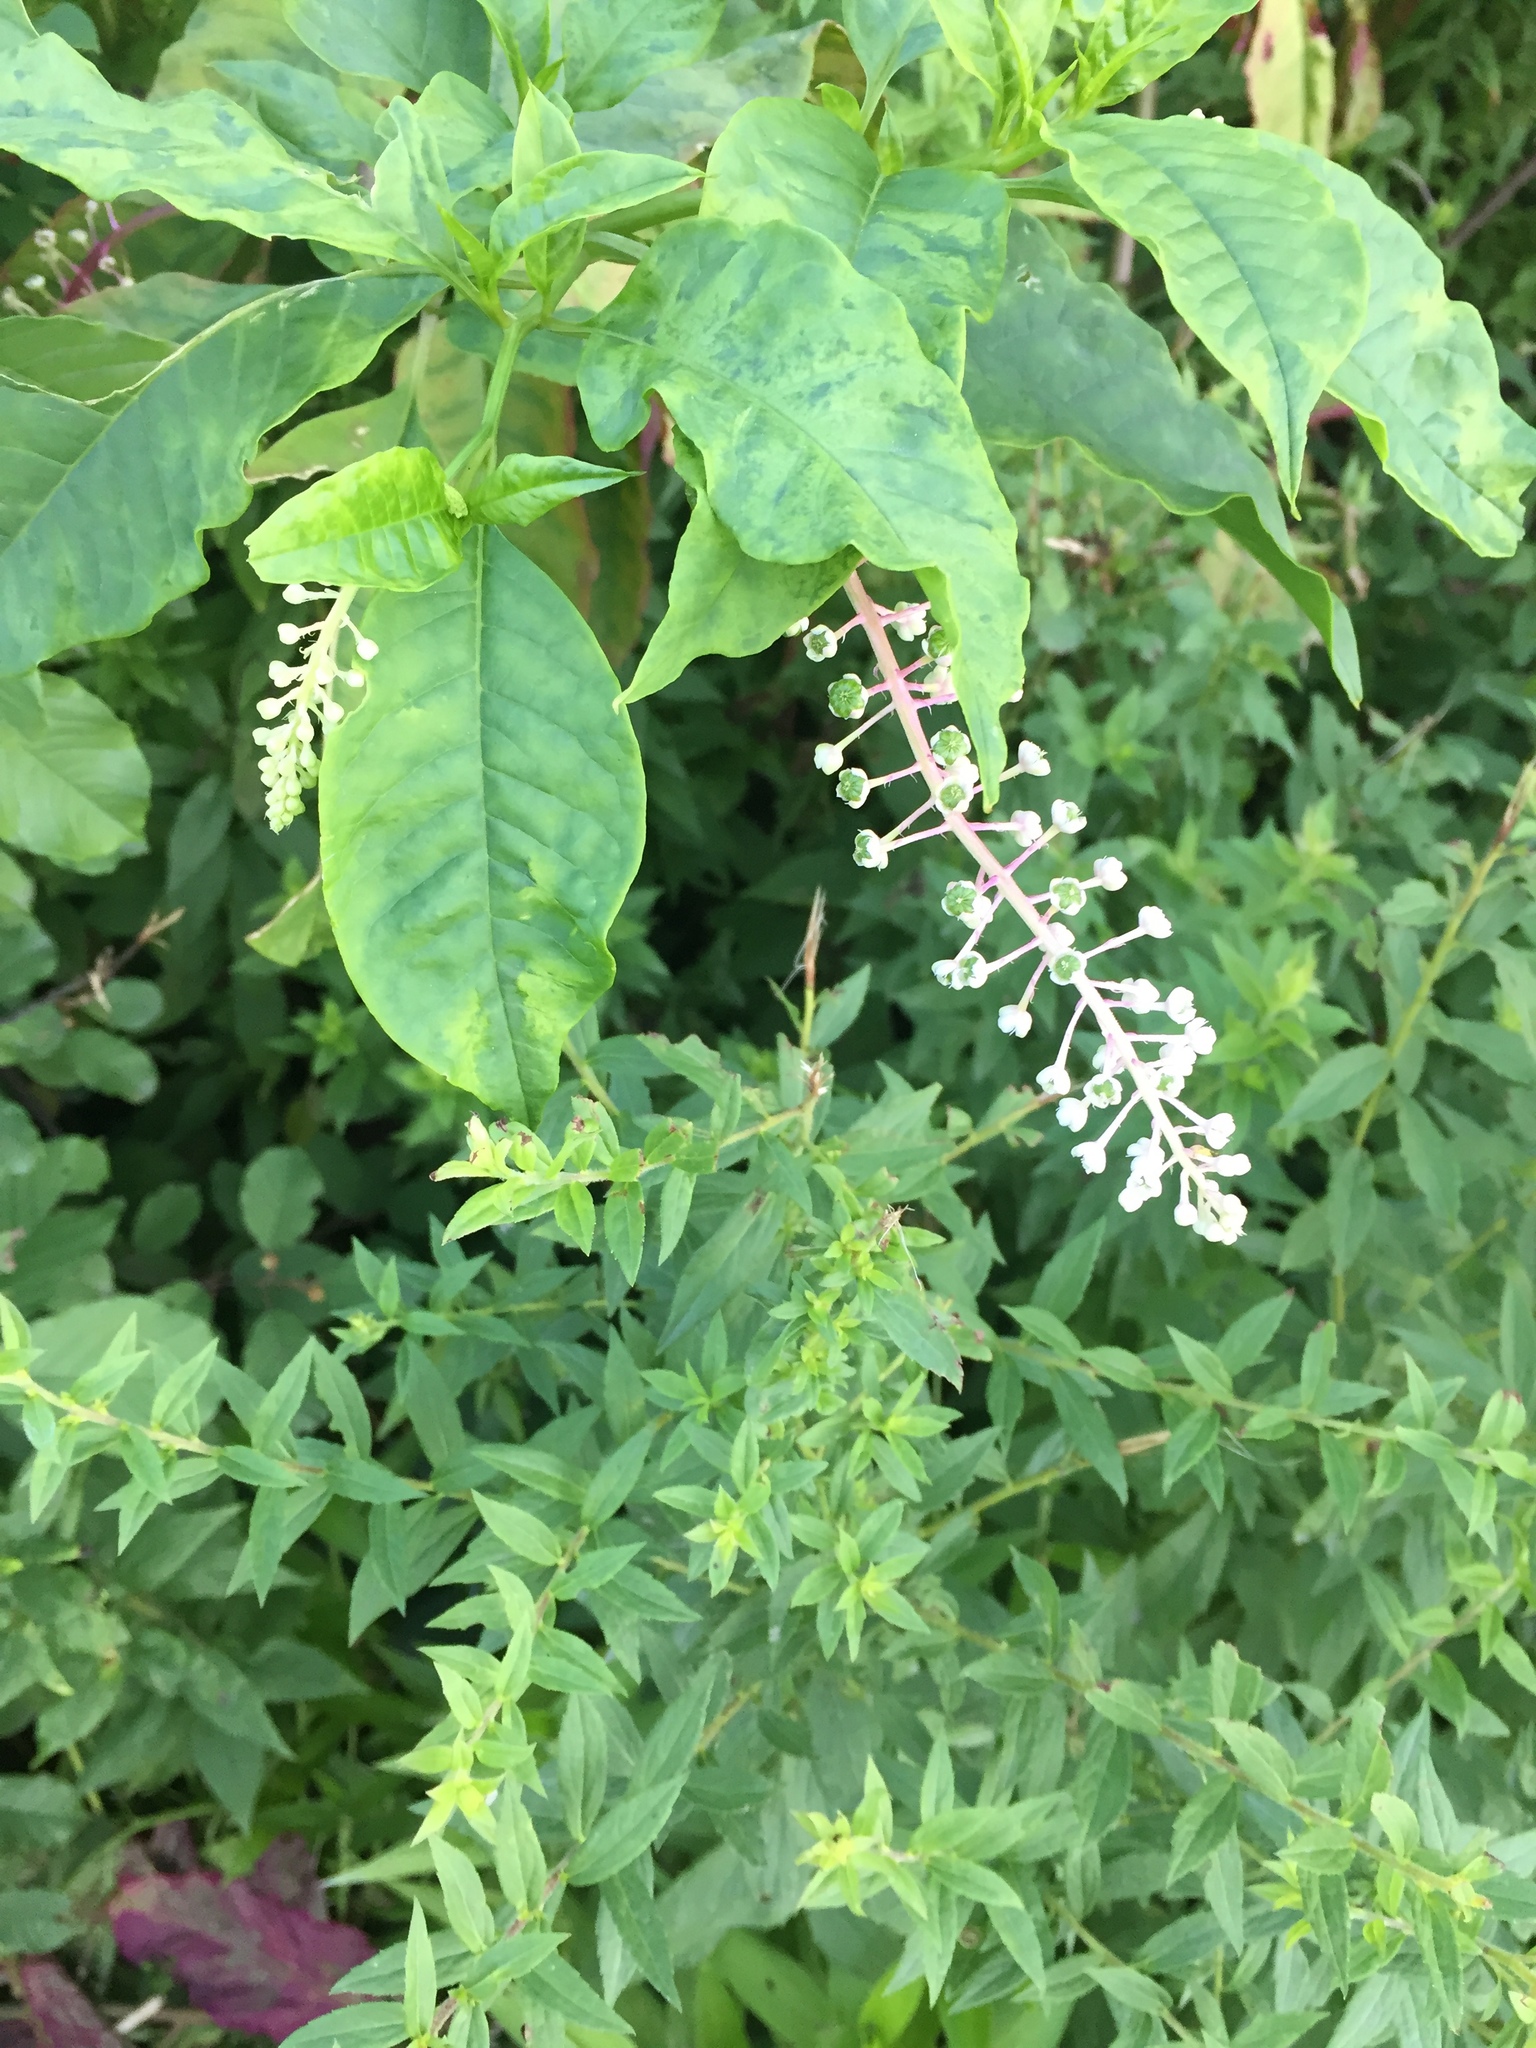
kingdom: Plantae
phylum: Tracheophyta
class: Magnoliopsida
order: Caryophyllales
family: Phytolaccaceae
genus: Phytolacca
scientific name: Phytolacca americana
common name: American pokeweed
